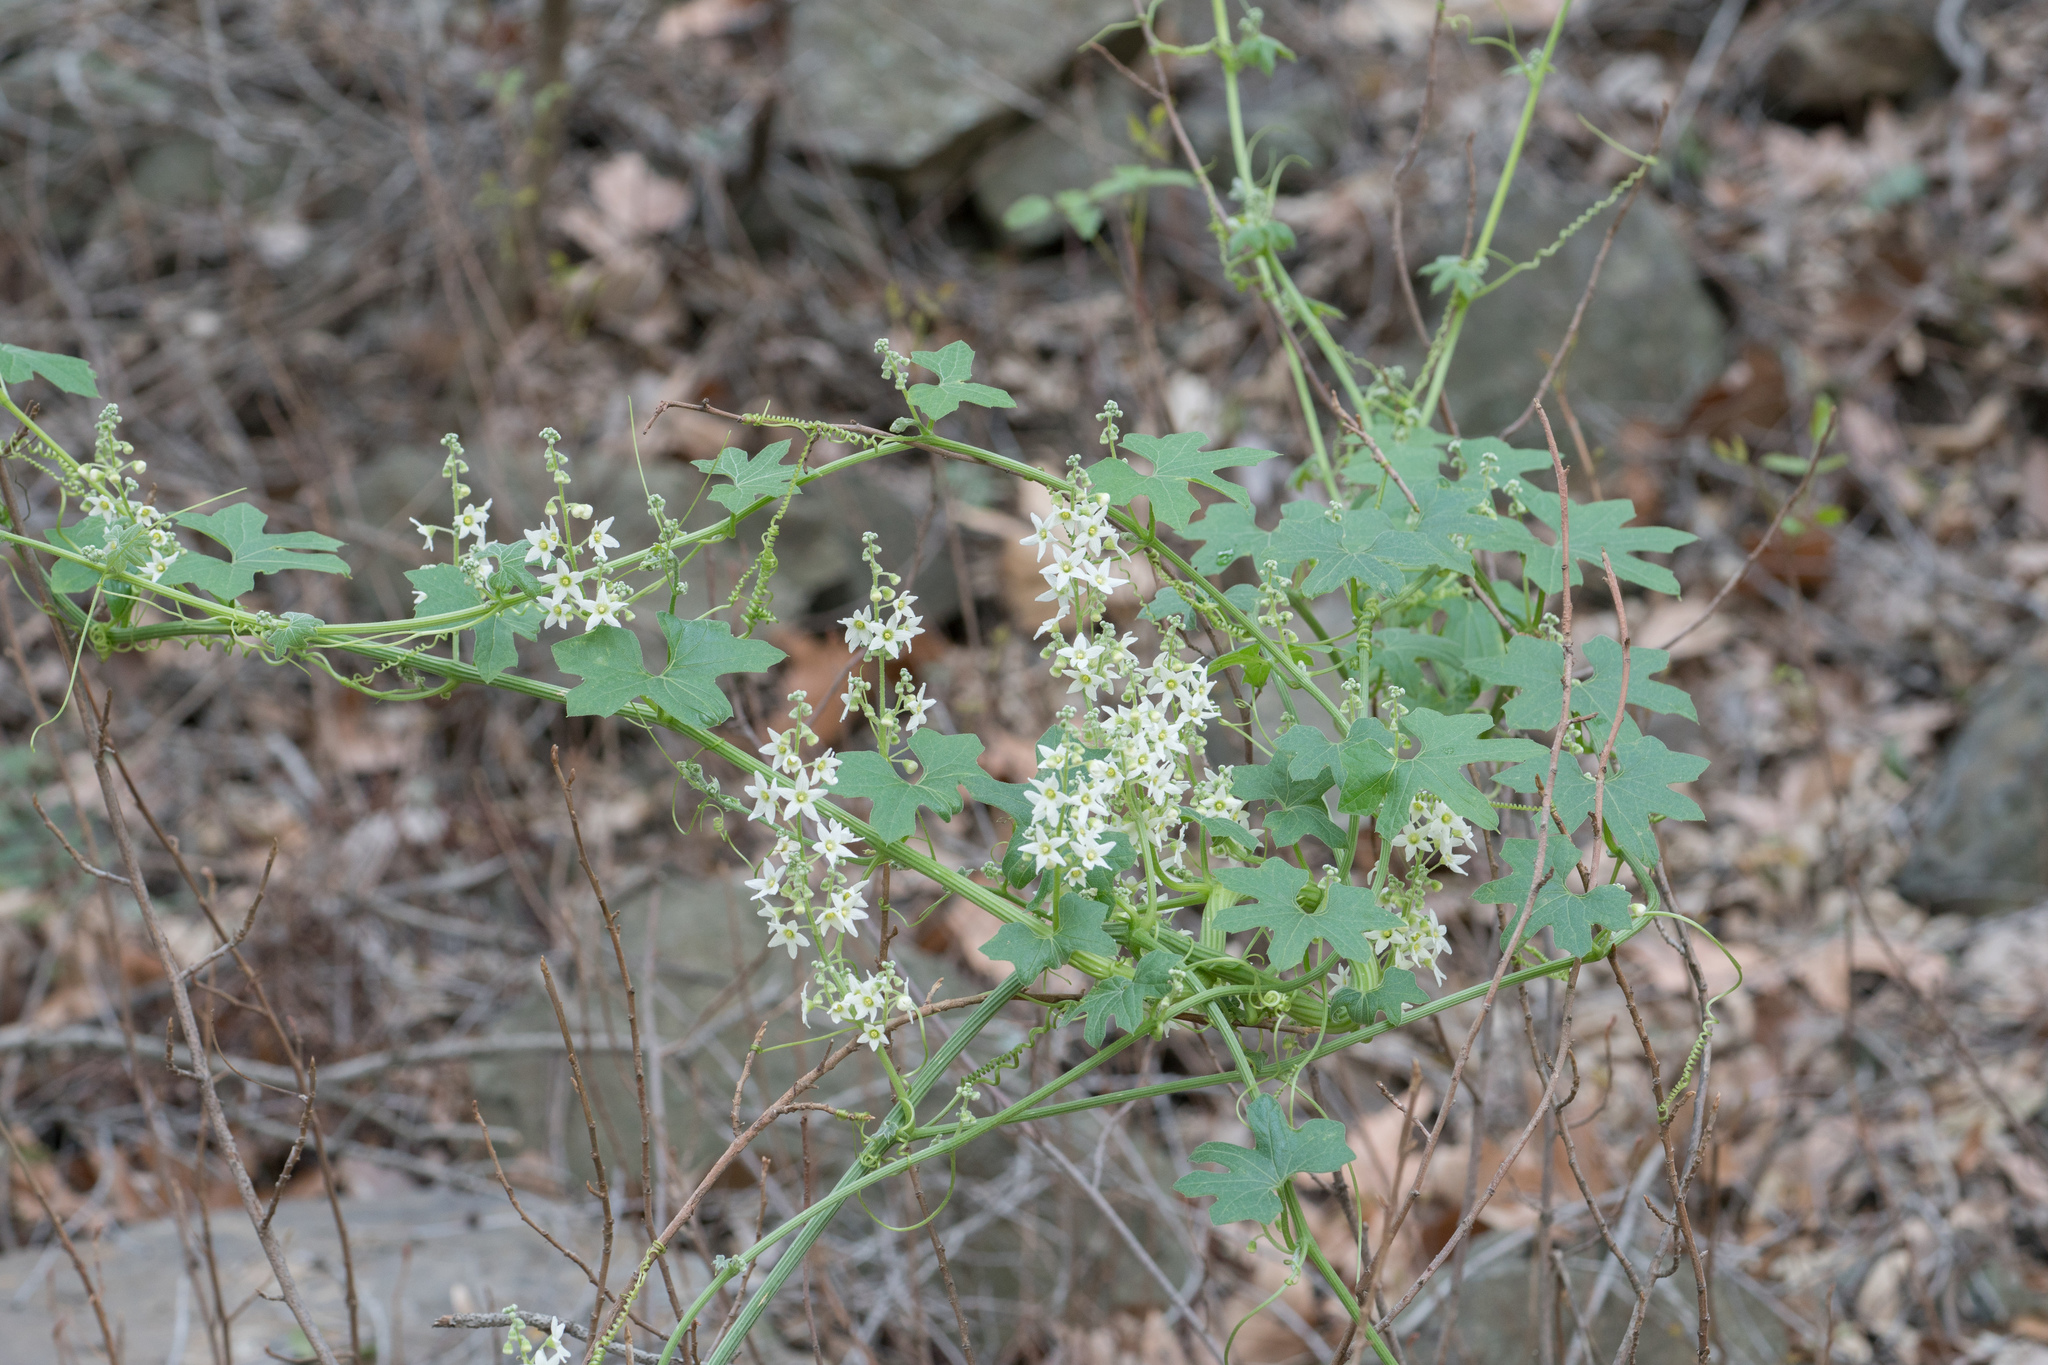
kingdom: Plantae
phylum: Tracheophyta
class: Magnoliopsida
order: Cucurbitales
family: Cucurbitaceae
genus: Marah
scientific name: Marah macrocarpa
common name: Cucamonga manroot
